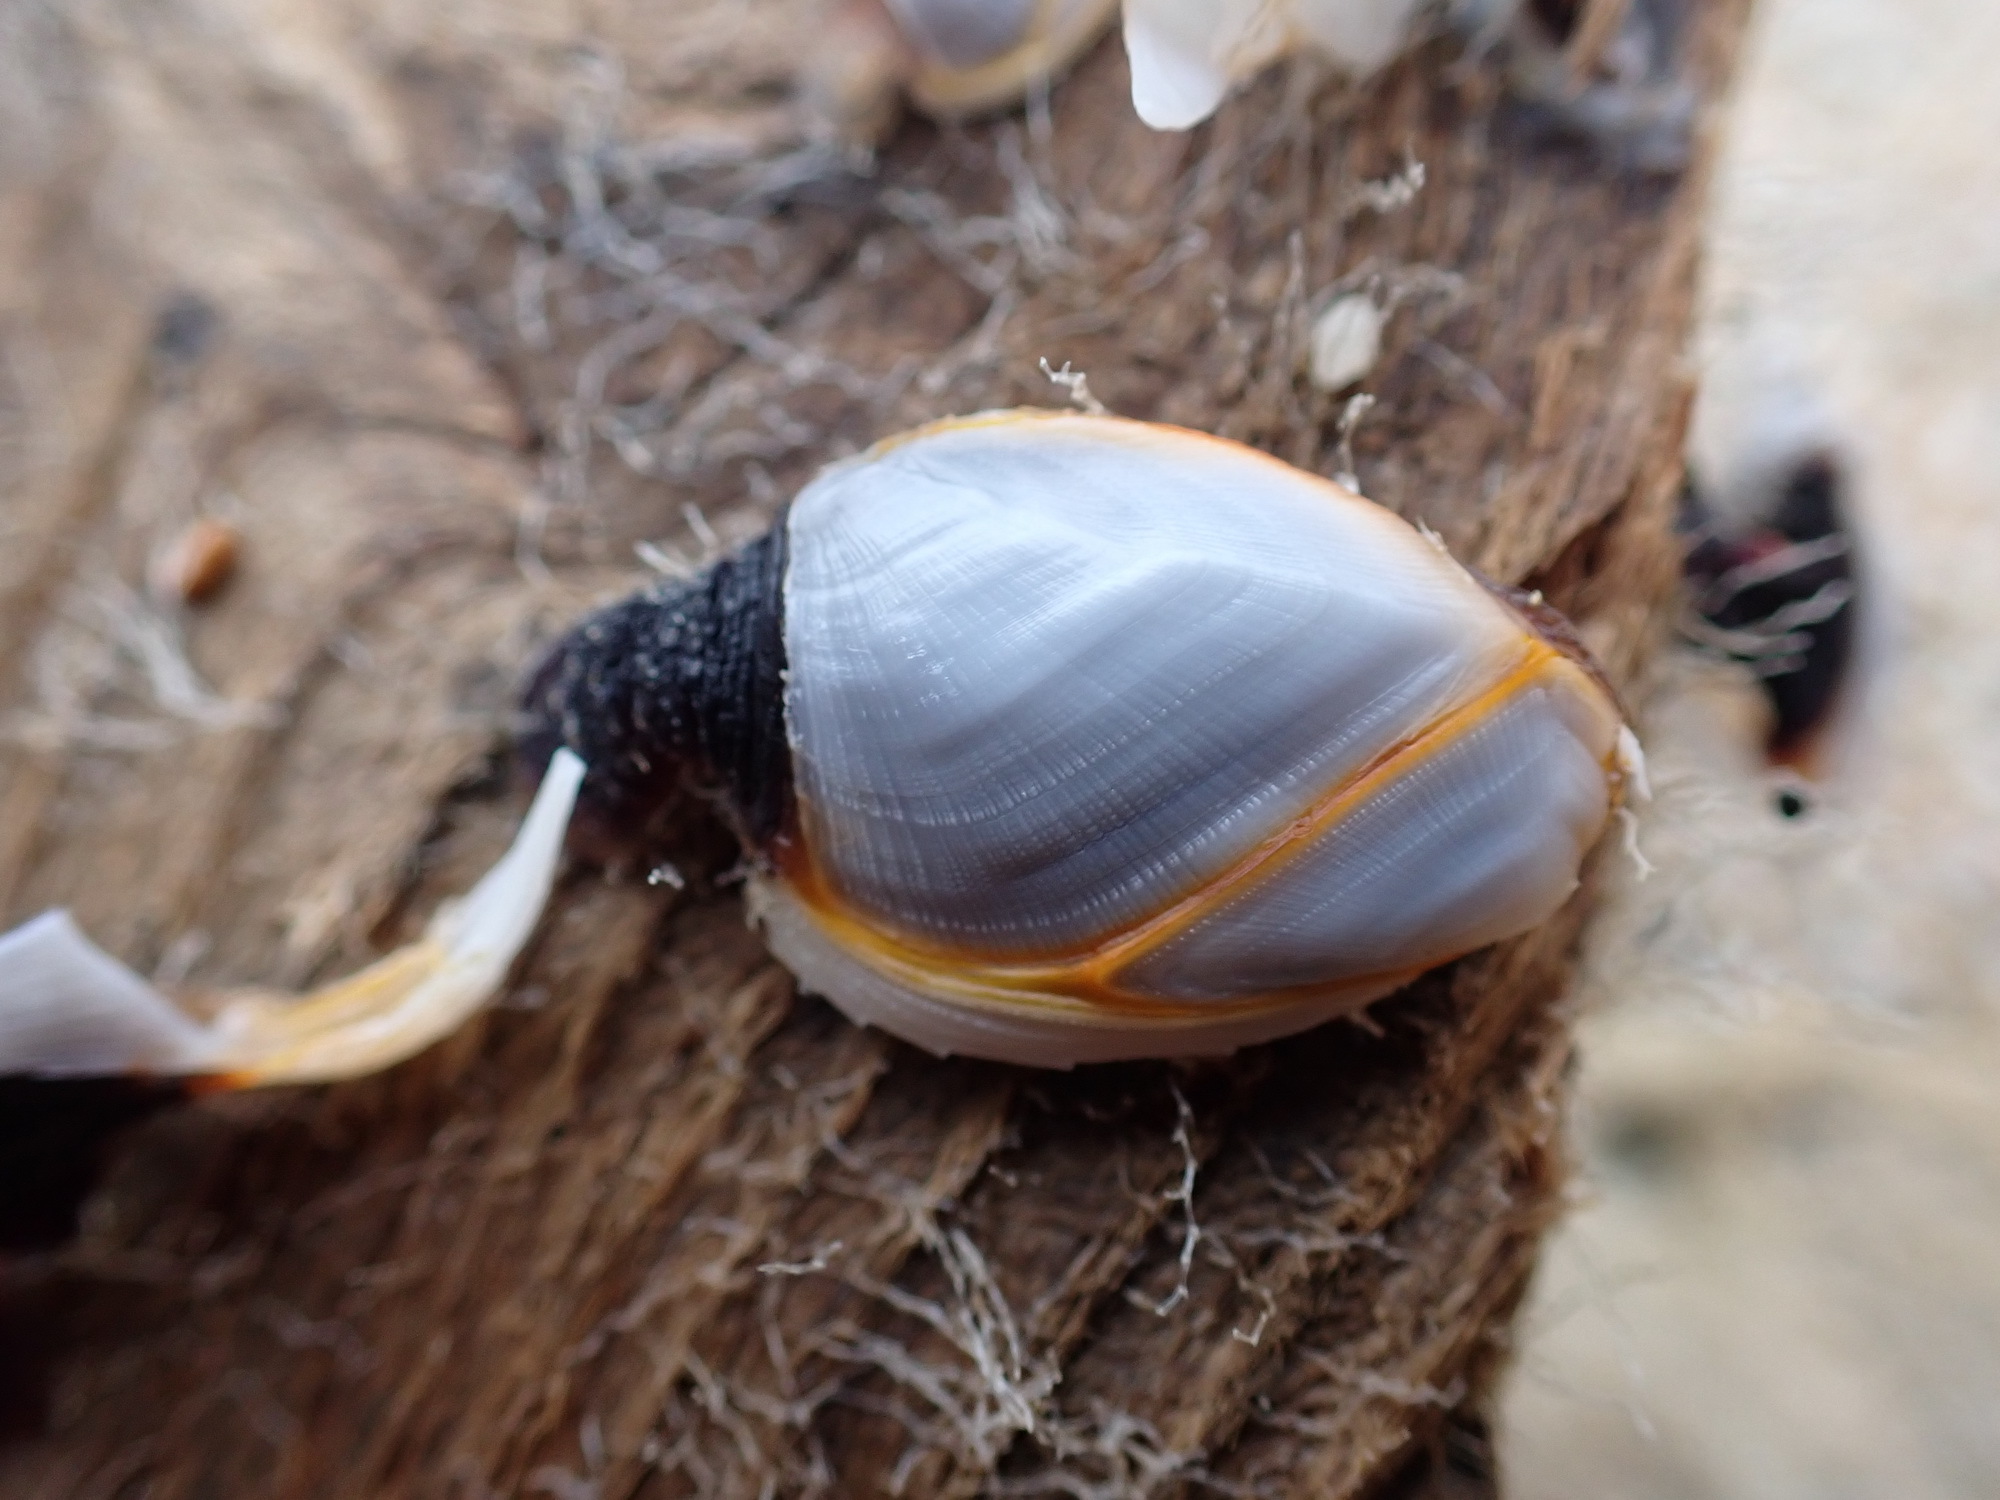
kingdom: Animalia
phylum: Arthropoda
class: Maxillopoda
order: Pedunculata
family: Lepadidae
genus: Lepas
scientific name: Lepas anserifera
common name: Goose barnacle
